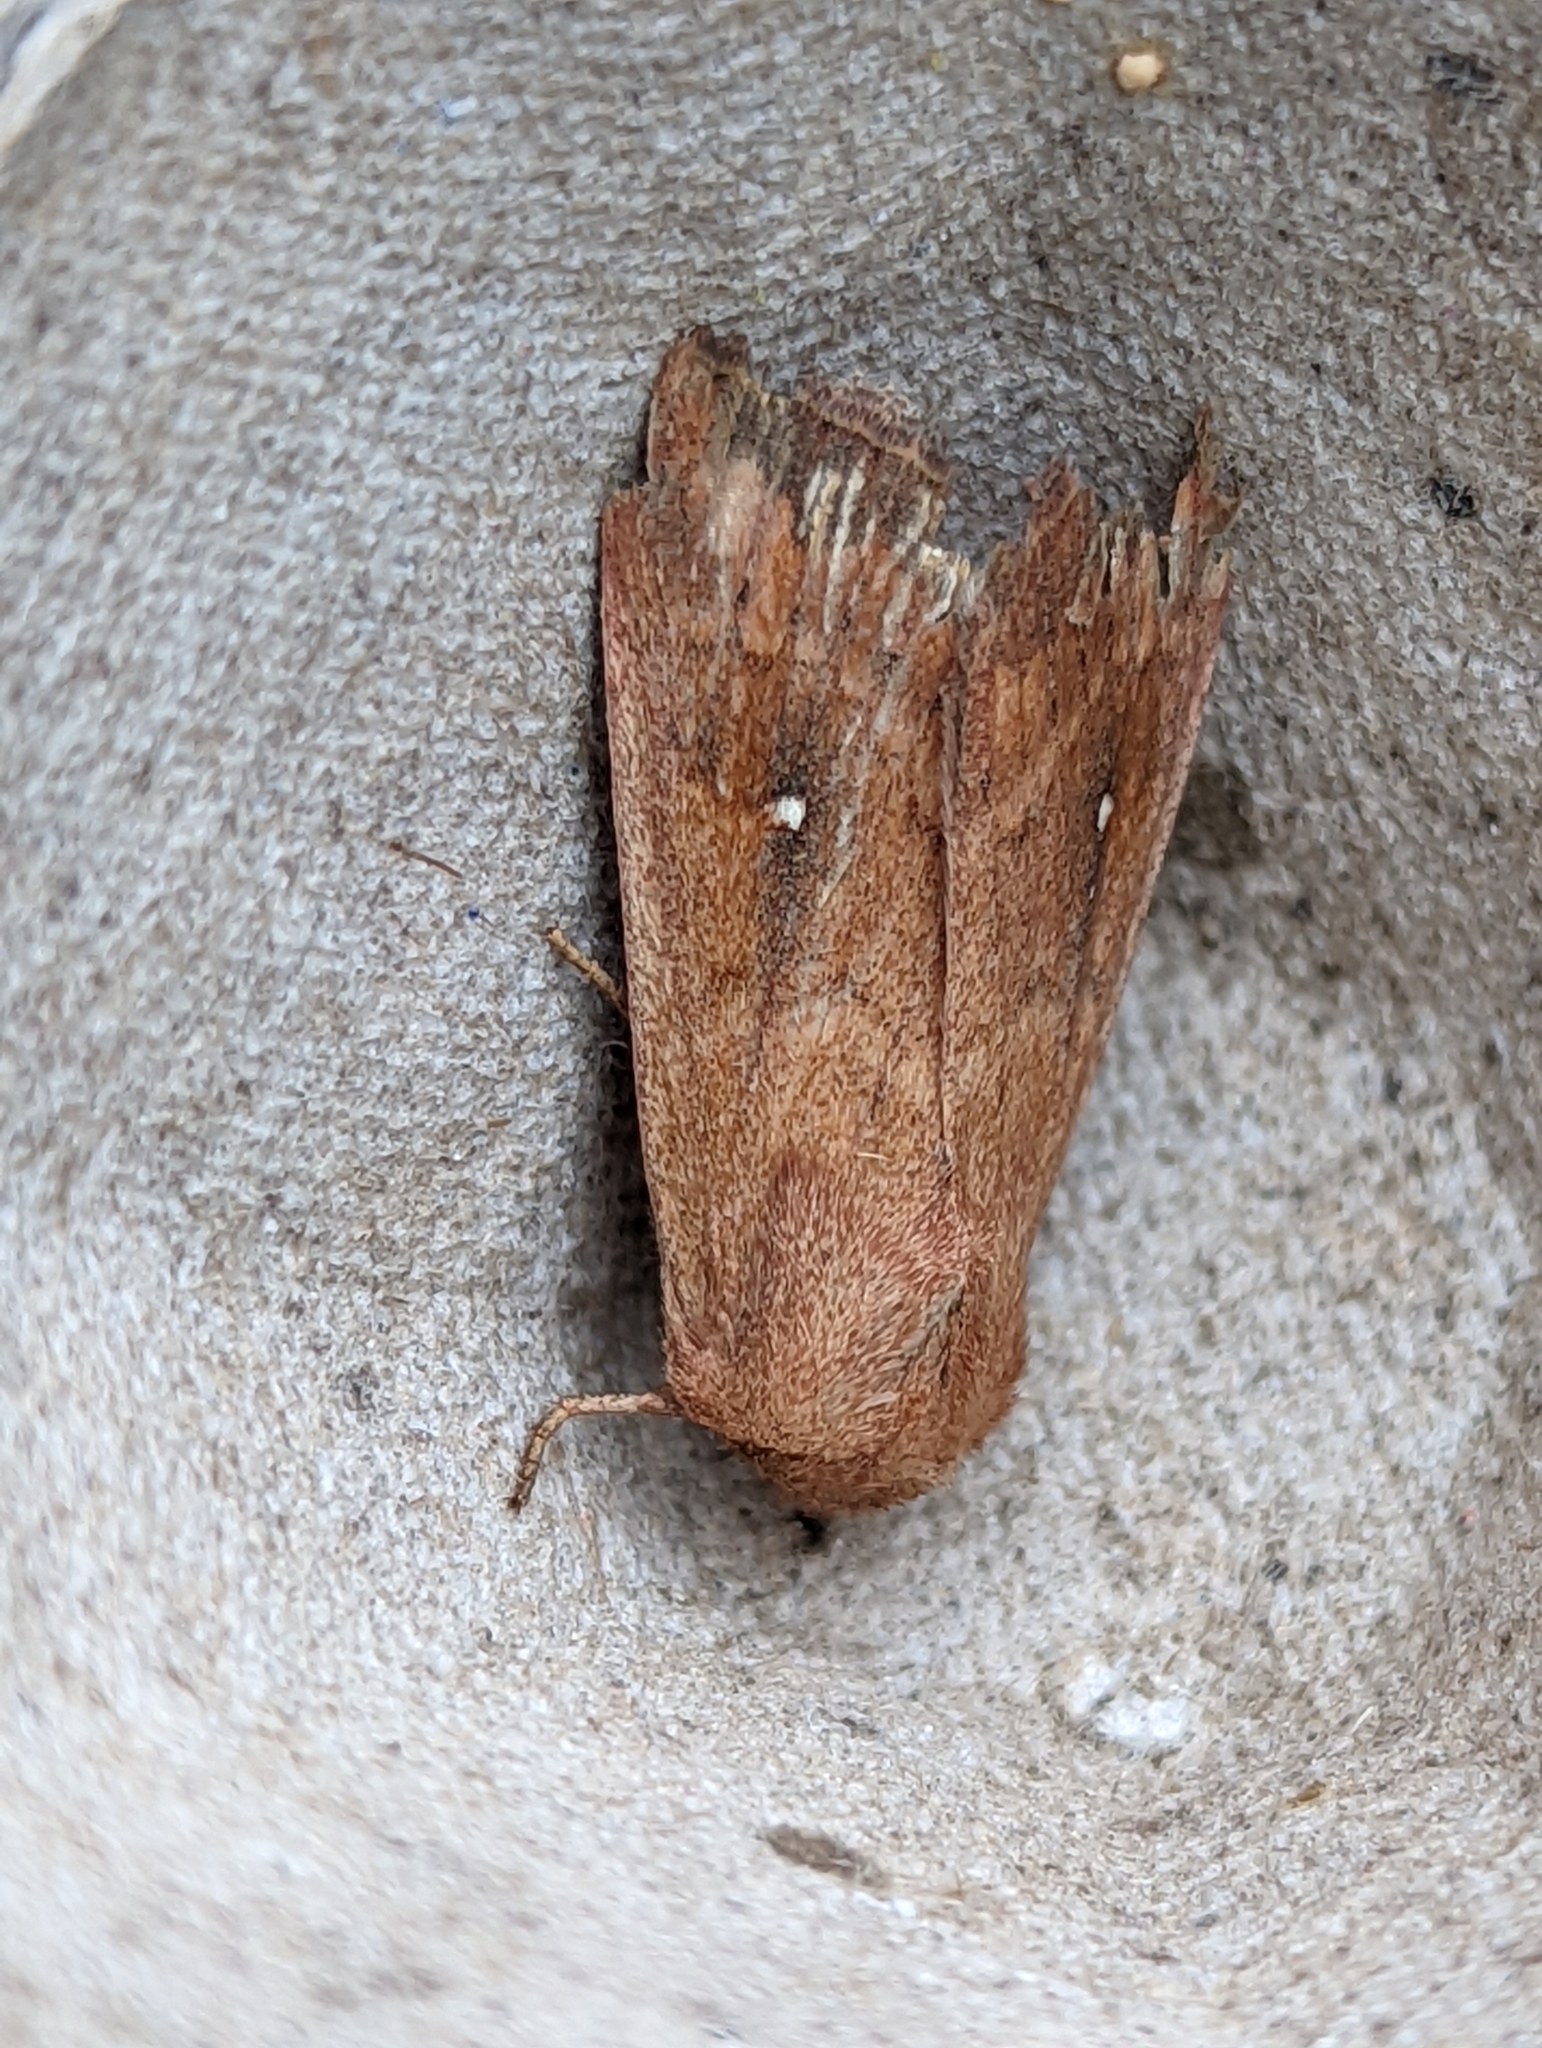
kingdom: Animalia
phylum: Arthropoda
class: Insecta
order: Lepidoptera
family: Noctuidae
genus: Mythimna
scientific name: Mythimna albipuncta
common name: White-point
